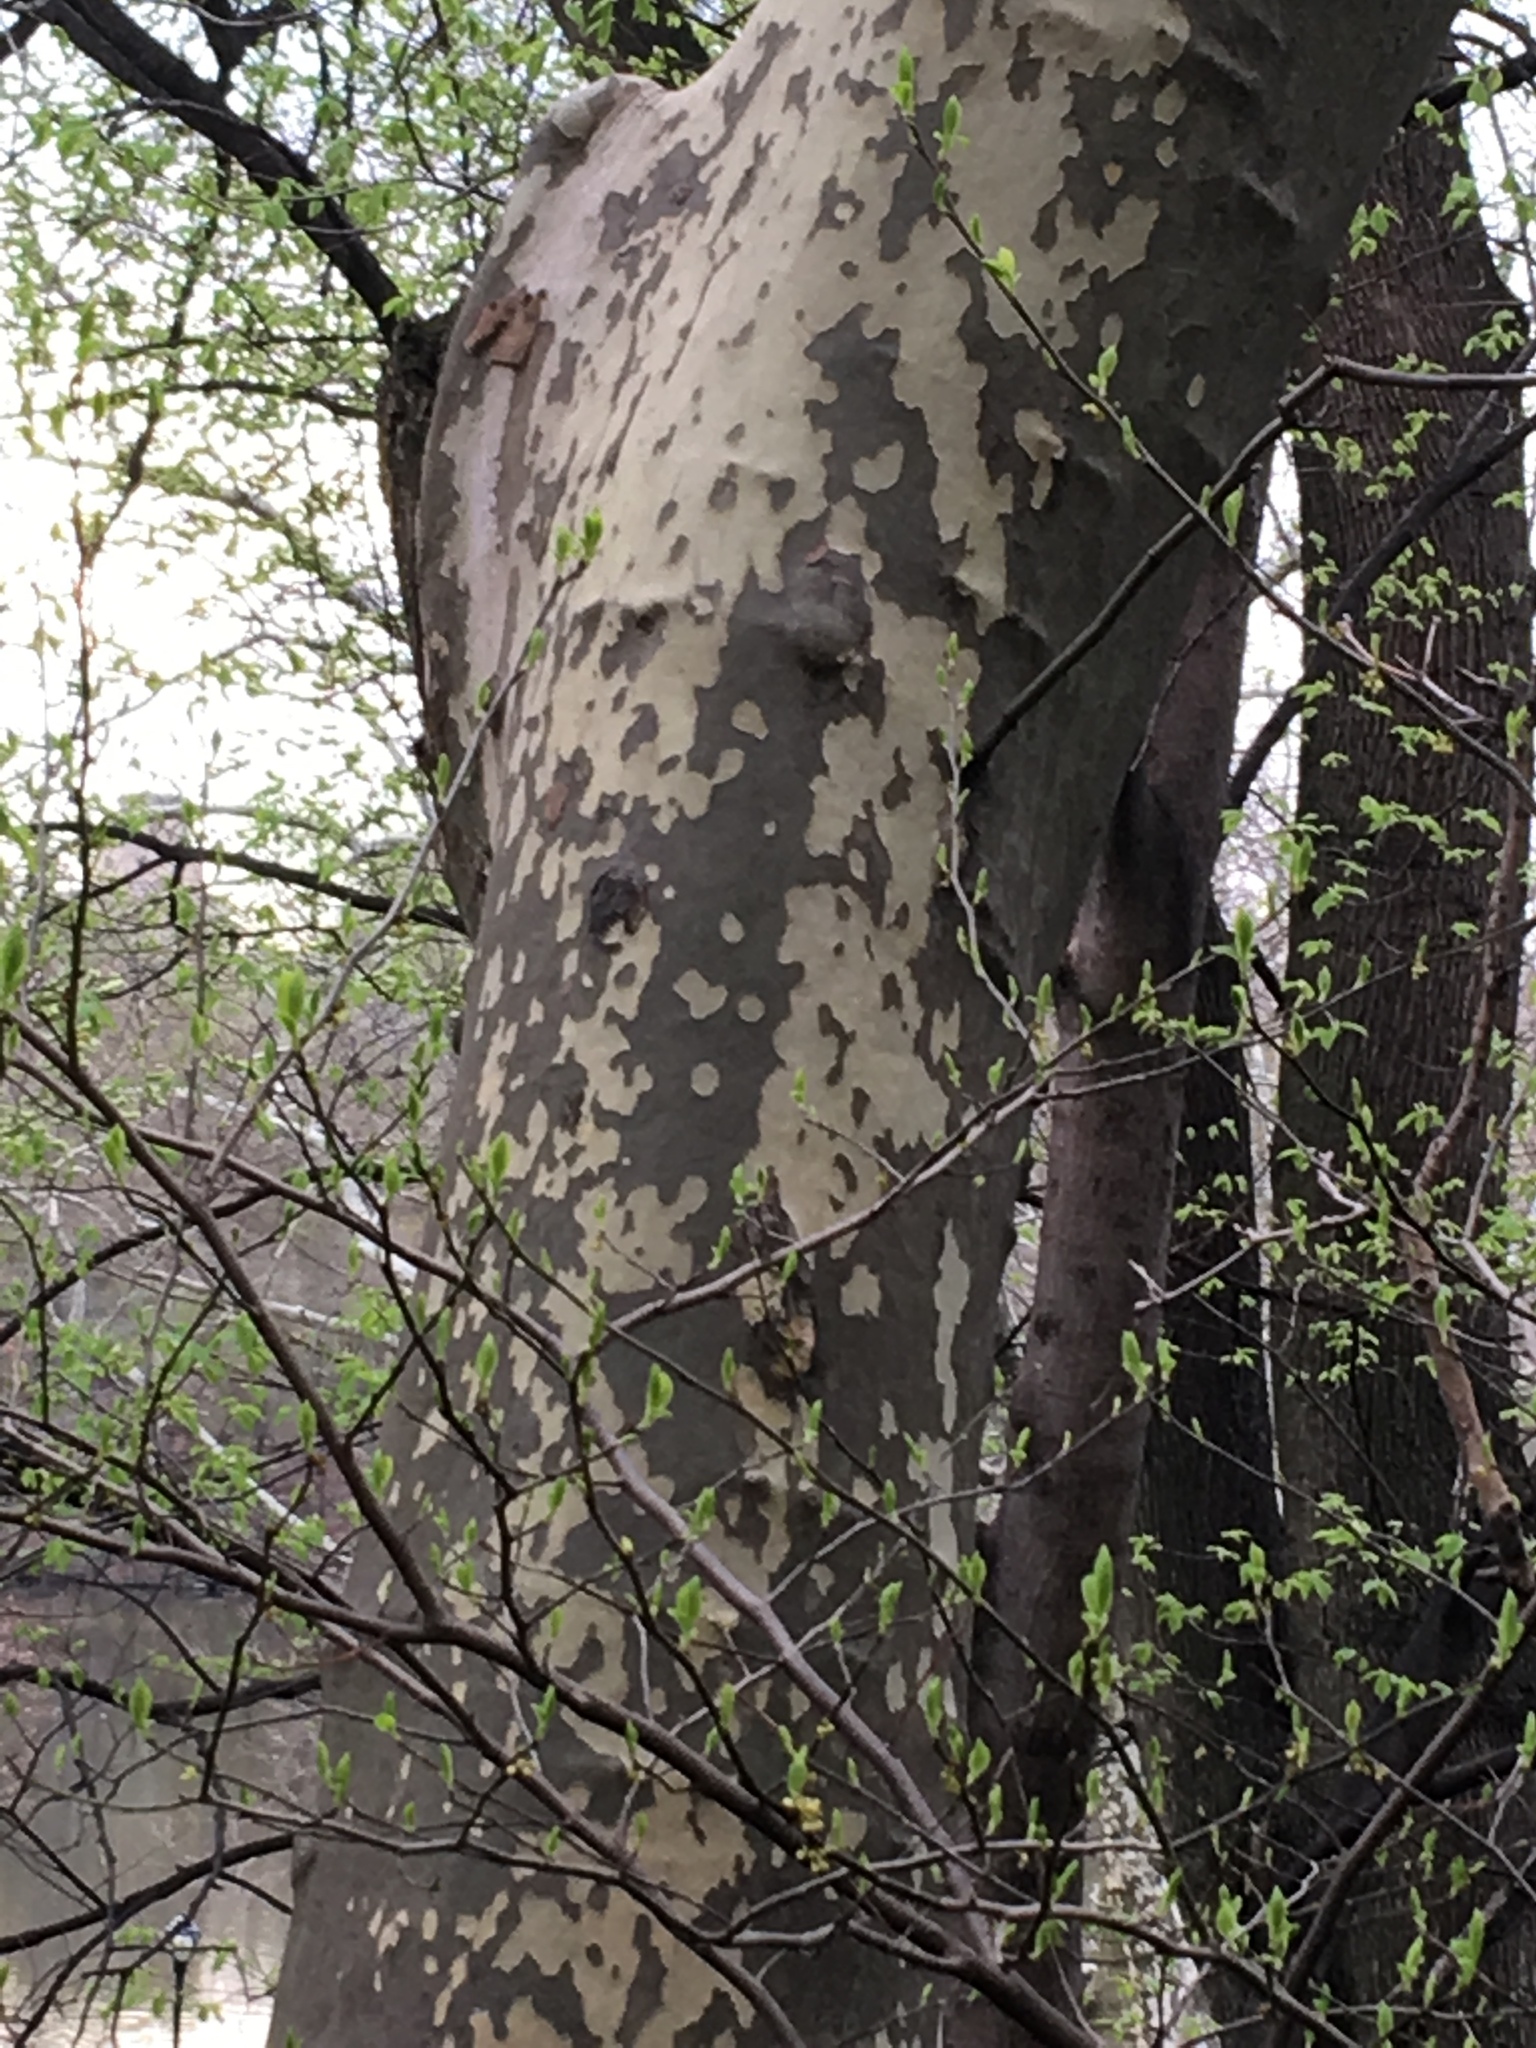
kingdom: Plantae
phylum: Tracheophyta
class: Magnoliopsida
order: Proteales
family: Platanaceae
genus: Platanus
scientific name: Platanus hispanica
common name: London plane
